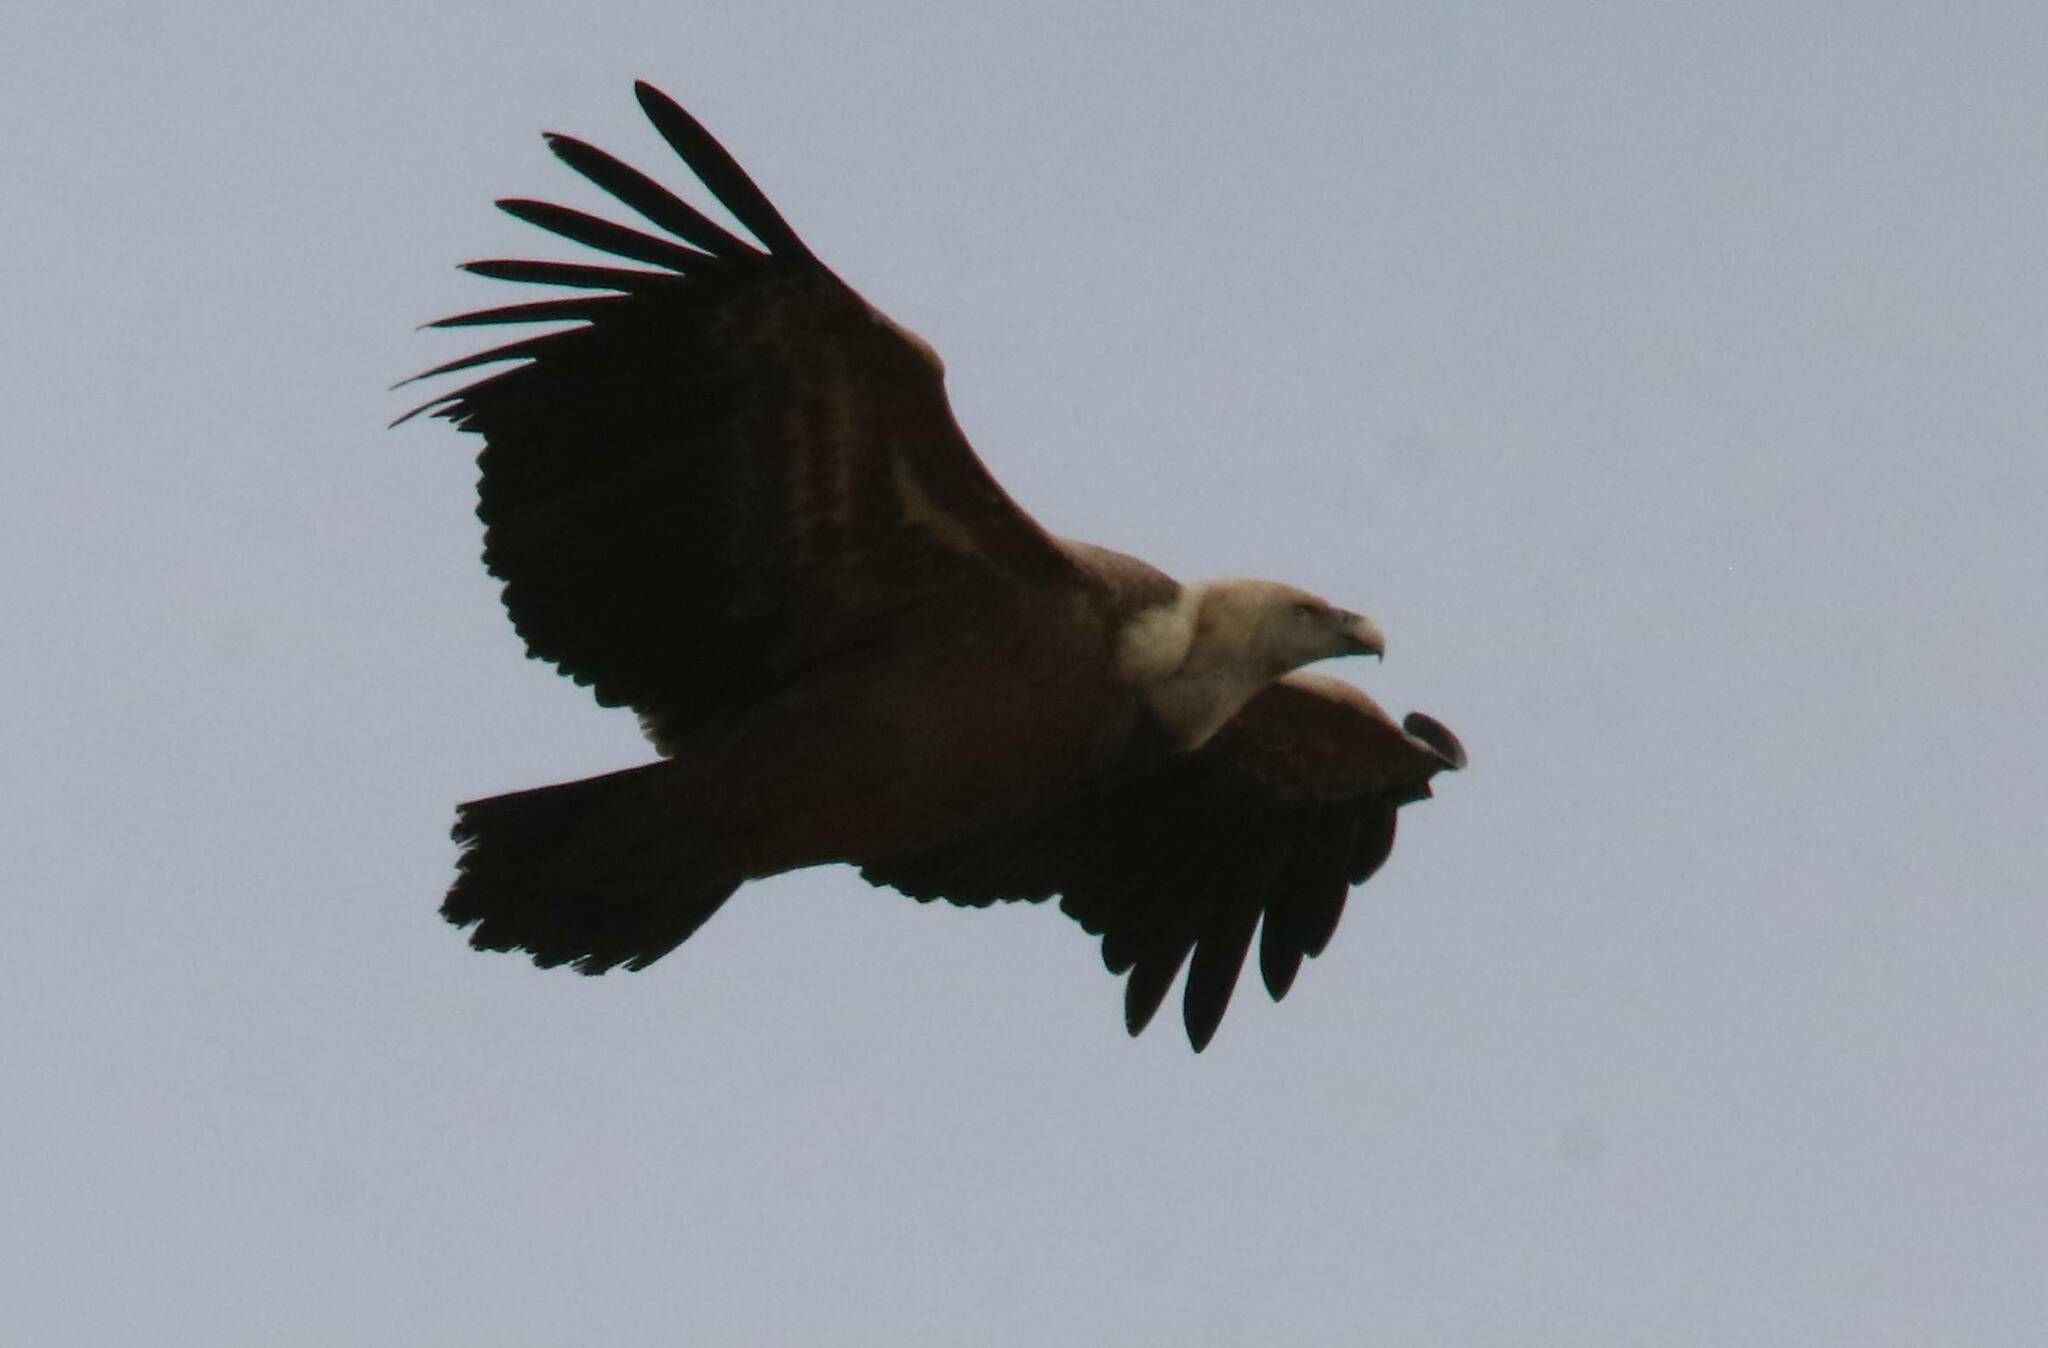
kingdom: Animalia
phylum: Chordata
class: Aves
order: Accipitriformes
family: Accipitridae
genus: Gyps
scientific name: Gyps fulvus
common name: Griffon vulture
